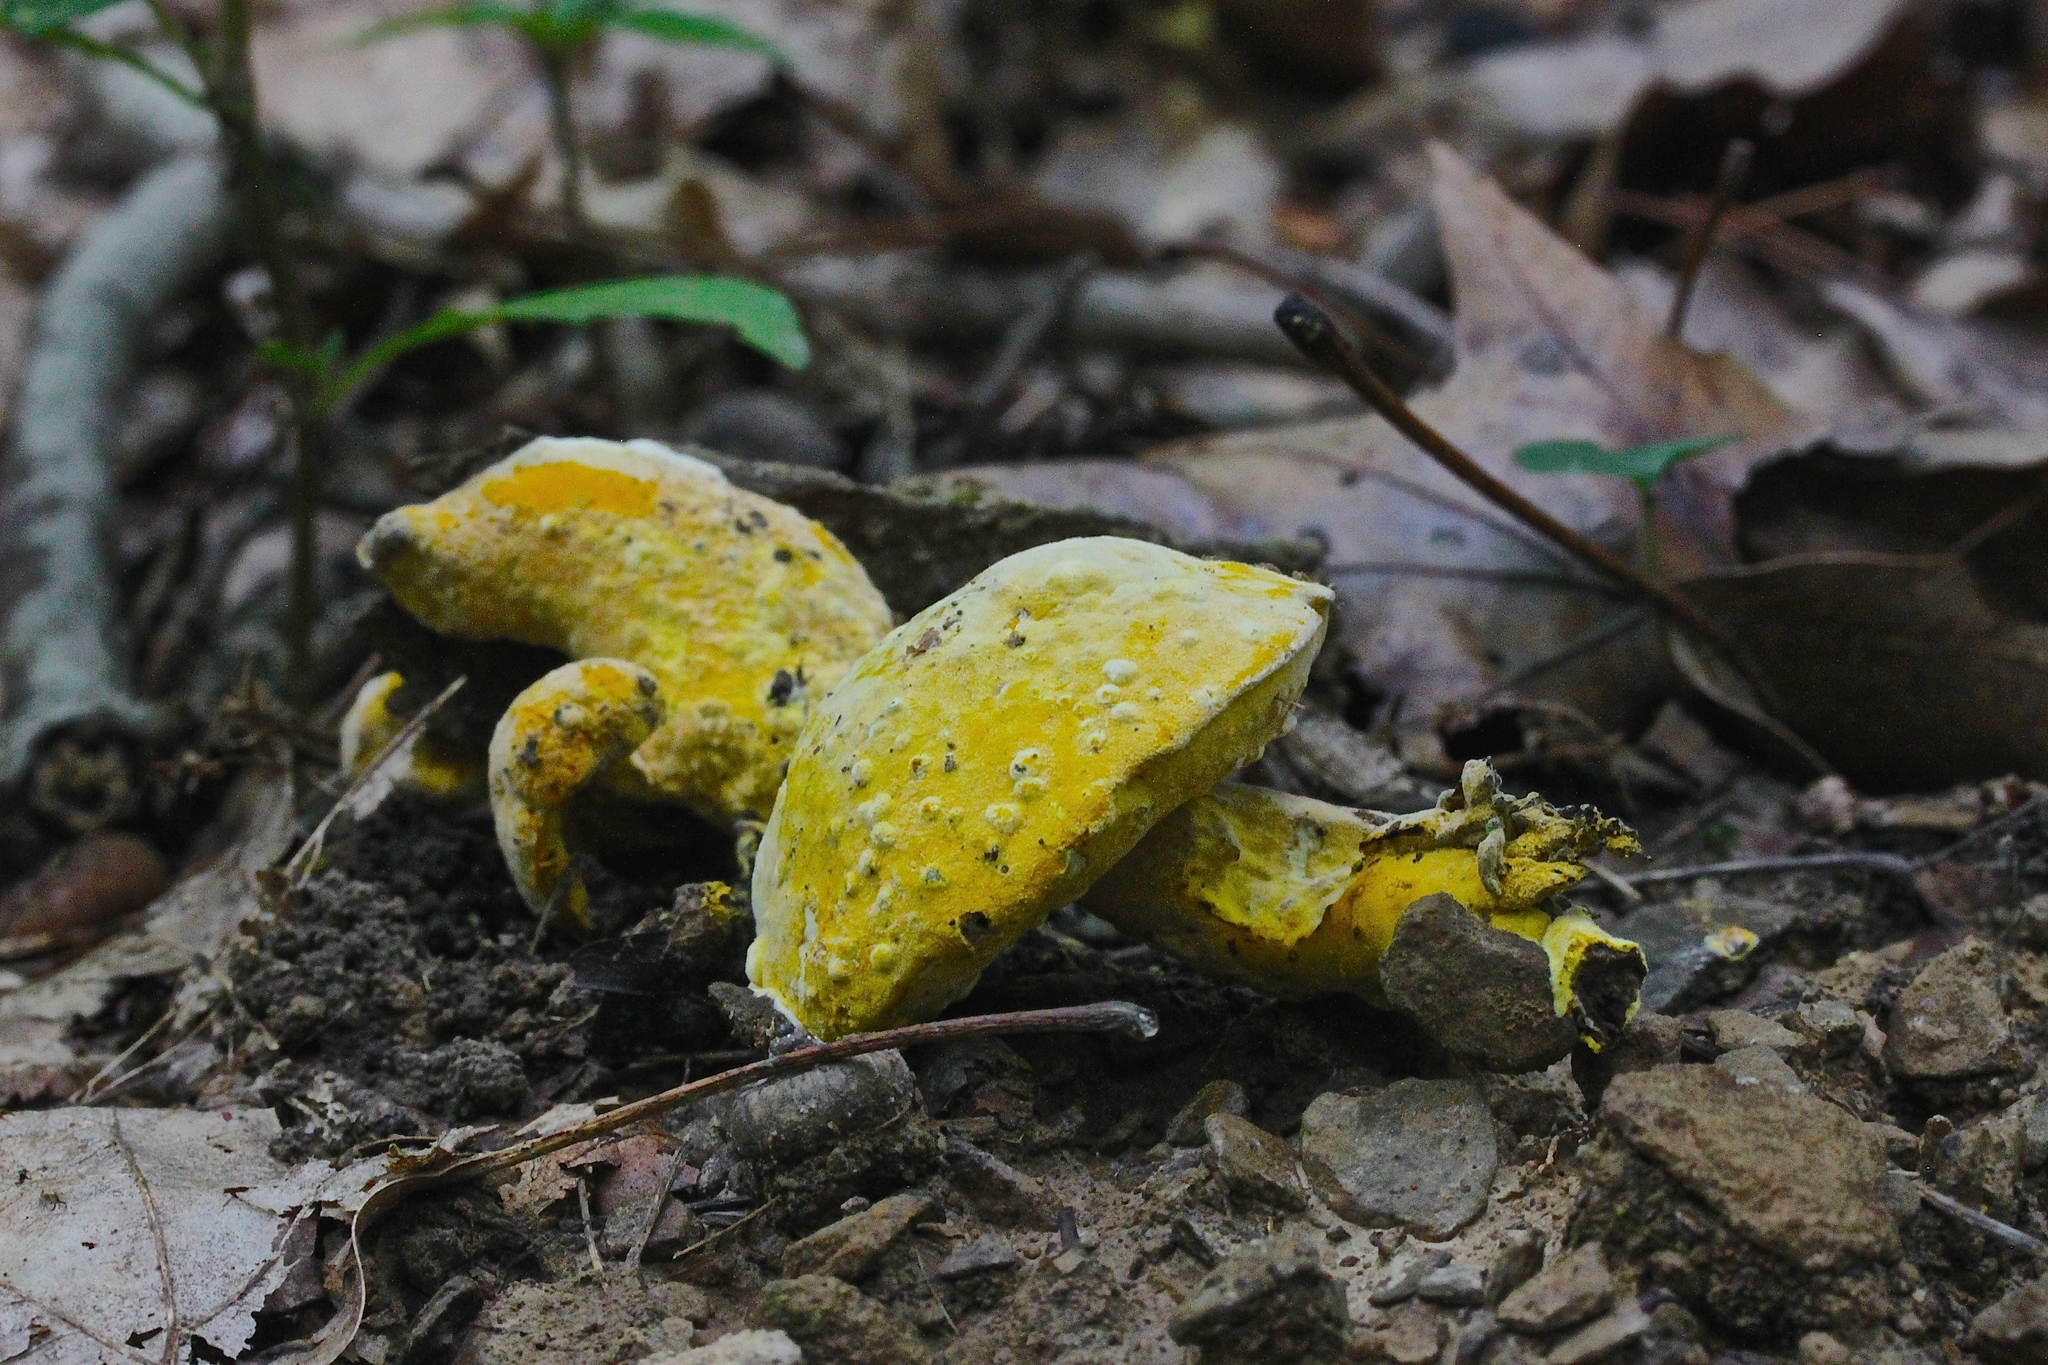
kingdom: Fungi
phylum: Ascomycota
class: Sordariomycetes
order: Hypocreales
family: Hypocreaceae
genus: Hypomyces
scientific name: Hypomyces chrysospermus
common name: Bolete mould
